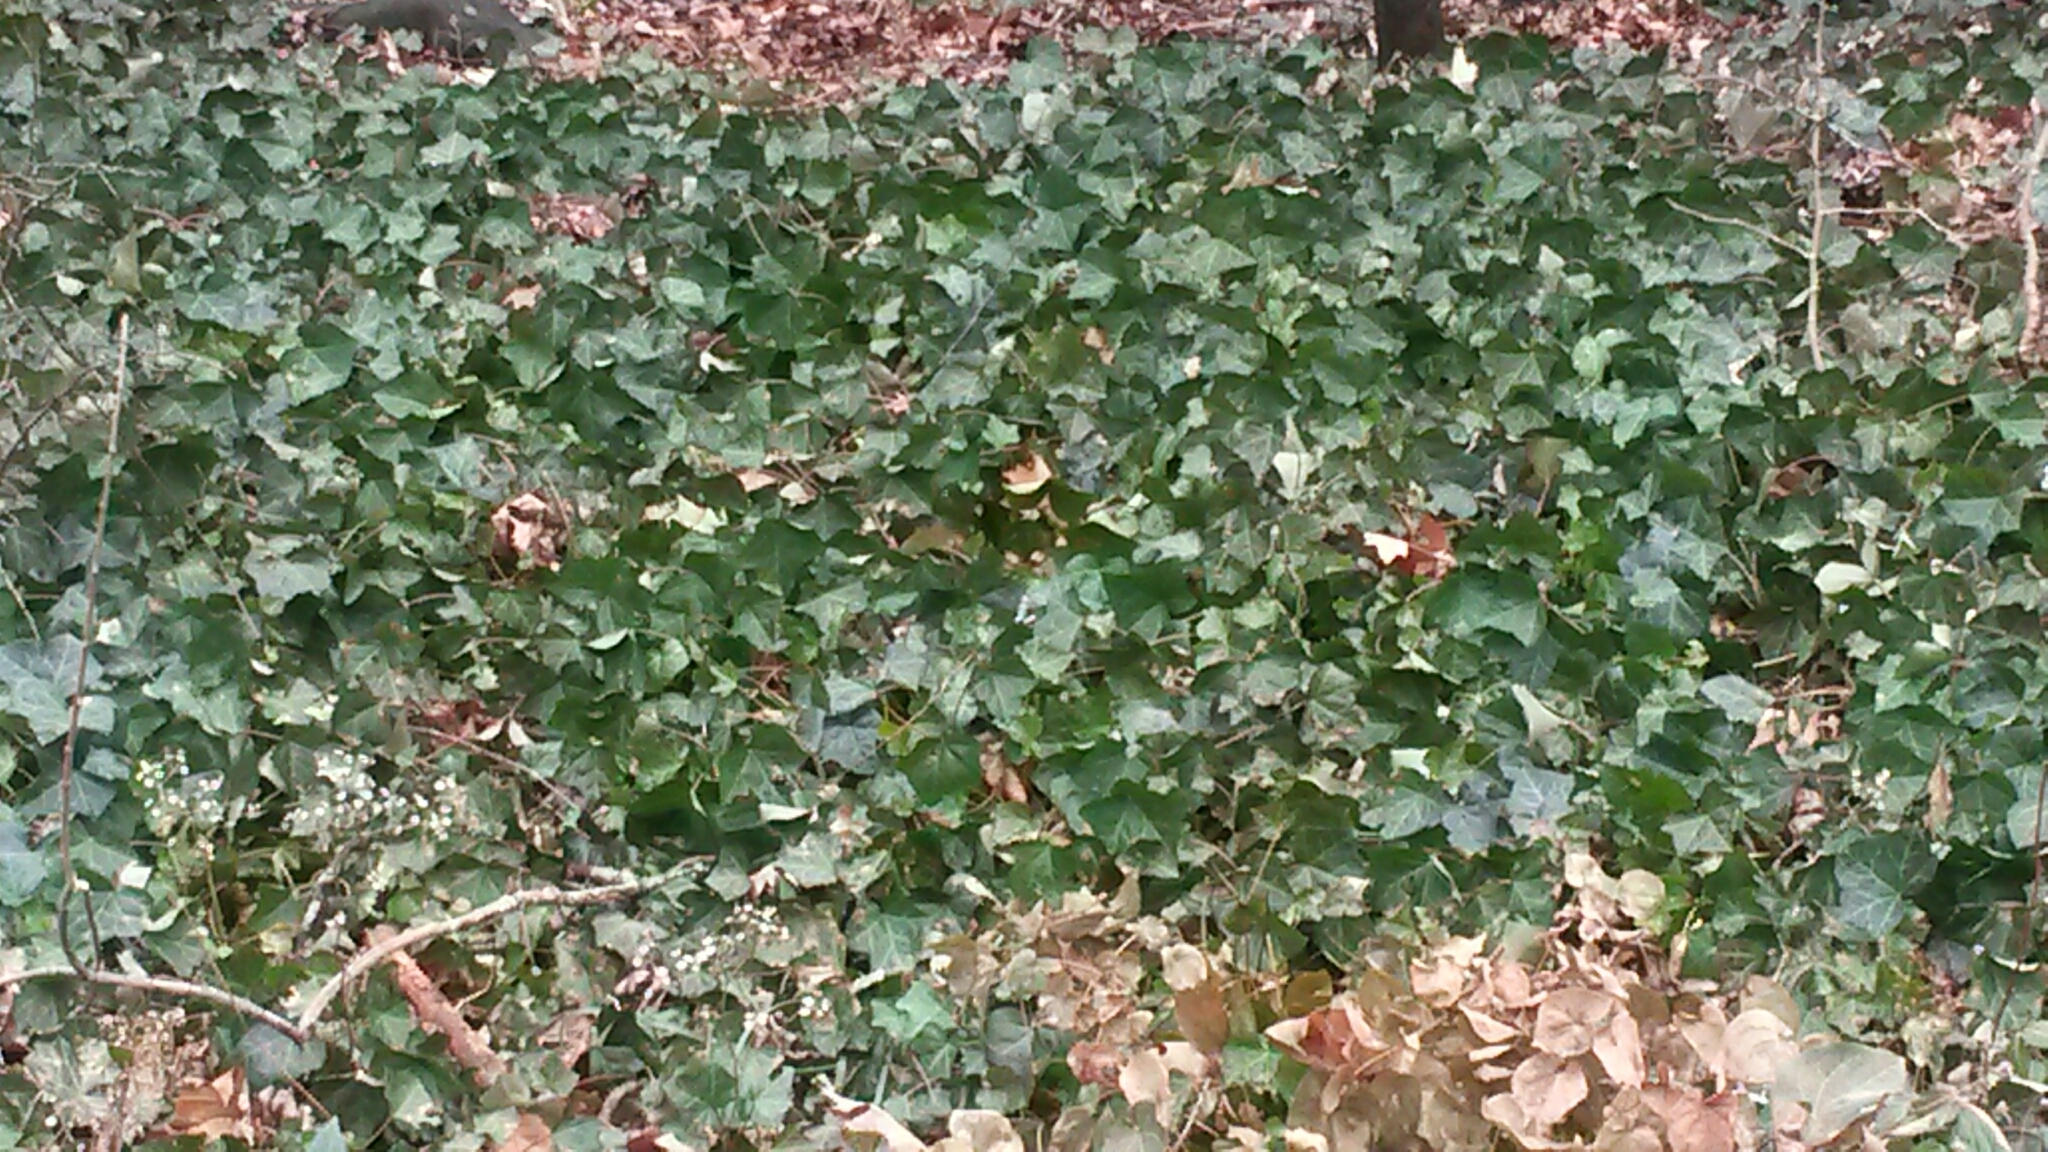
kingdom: Plantae
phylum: Tracheophyta
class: Magnoliopsida
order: Apiales
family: Araliaceae
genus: Hedera
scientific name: Hedera
